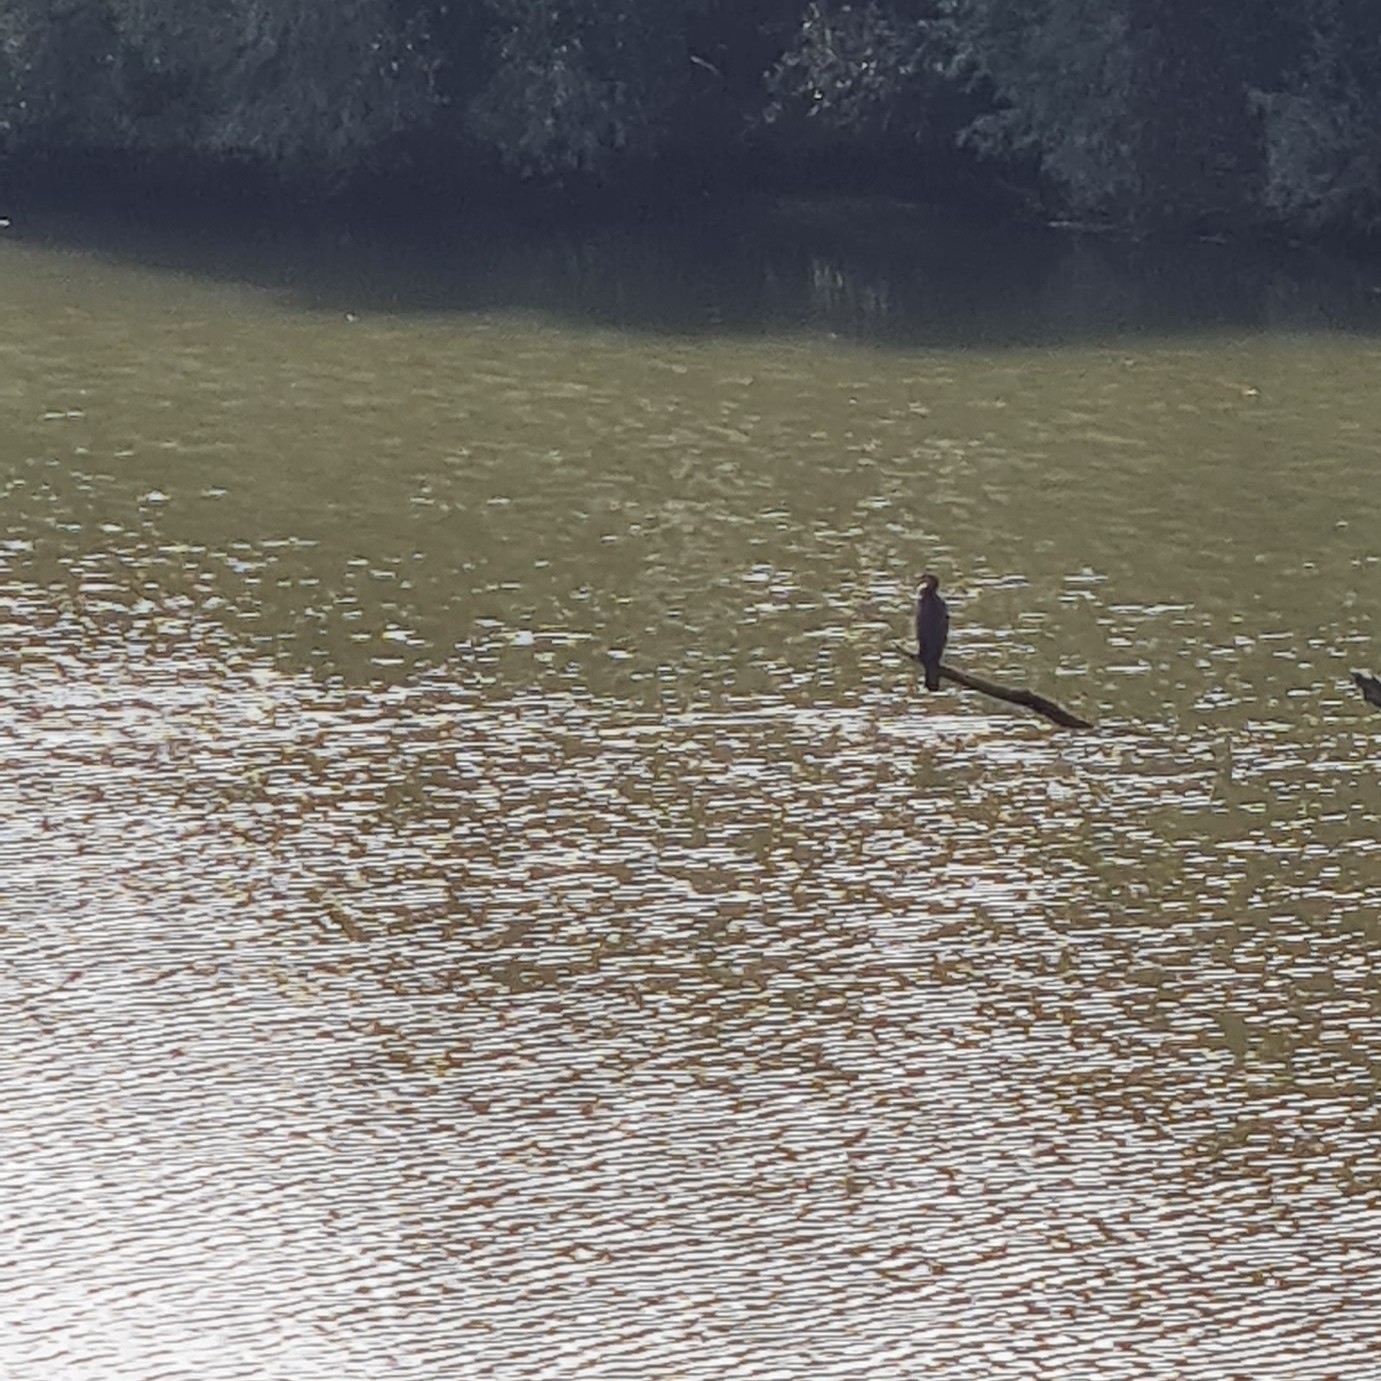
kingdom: Animalia
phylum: Chordata
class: Aves
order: Suliformes
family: Phalacrocoracidae
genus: Phalacrocorax
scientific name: Phalacrocorax carbo
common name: Great cormorant
